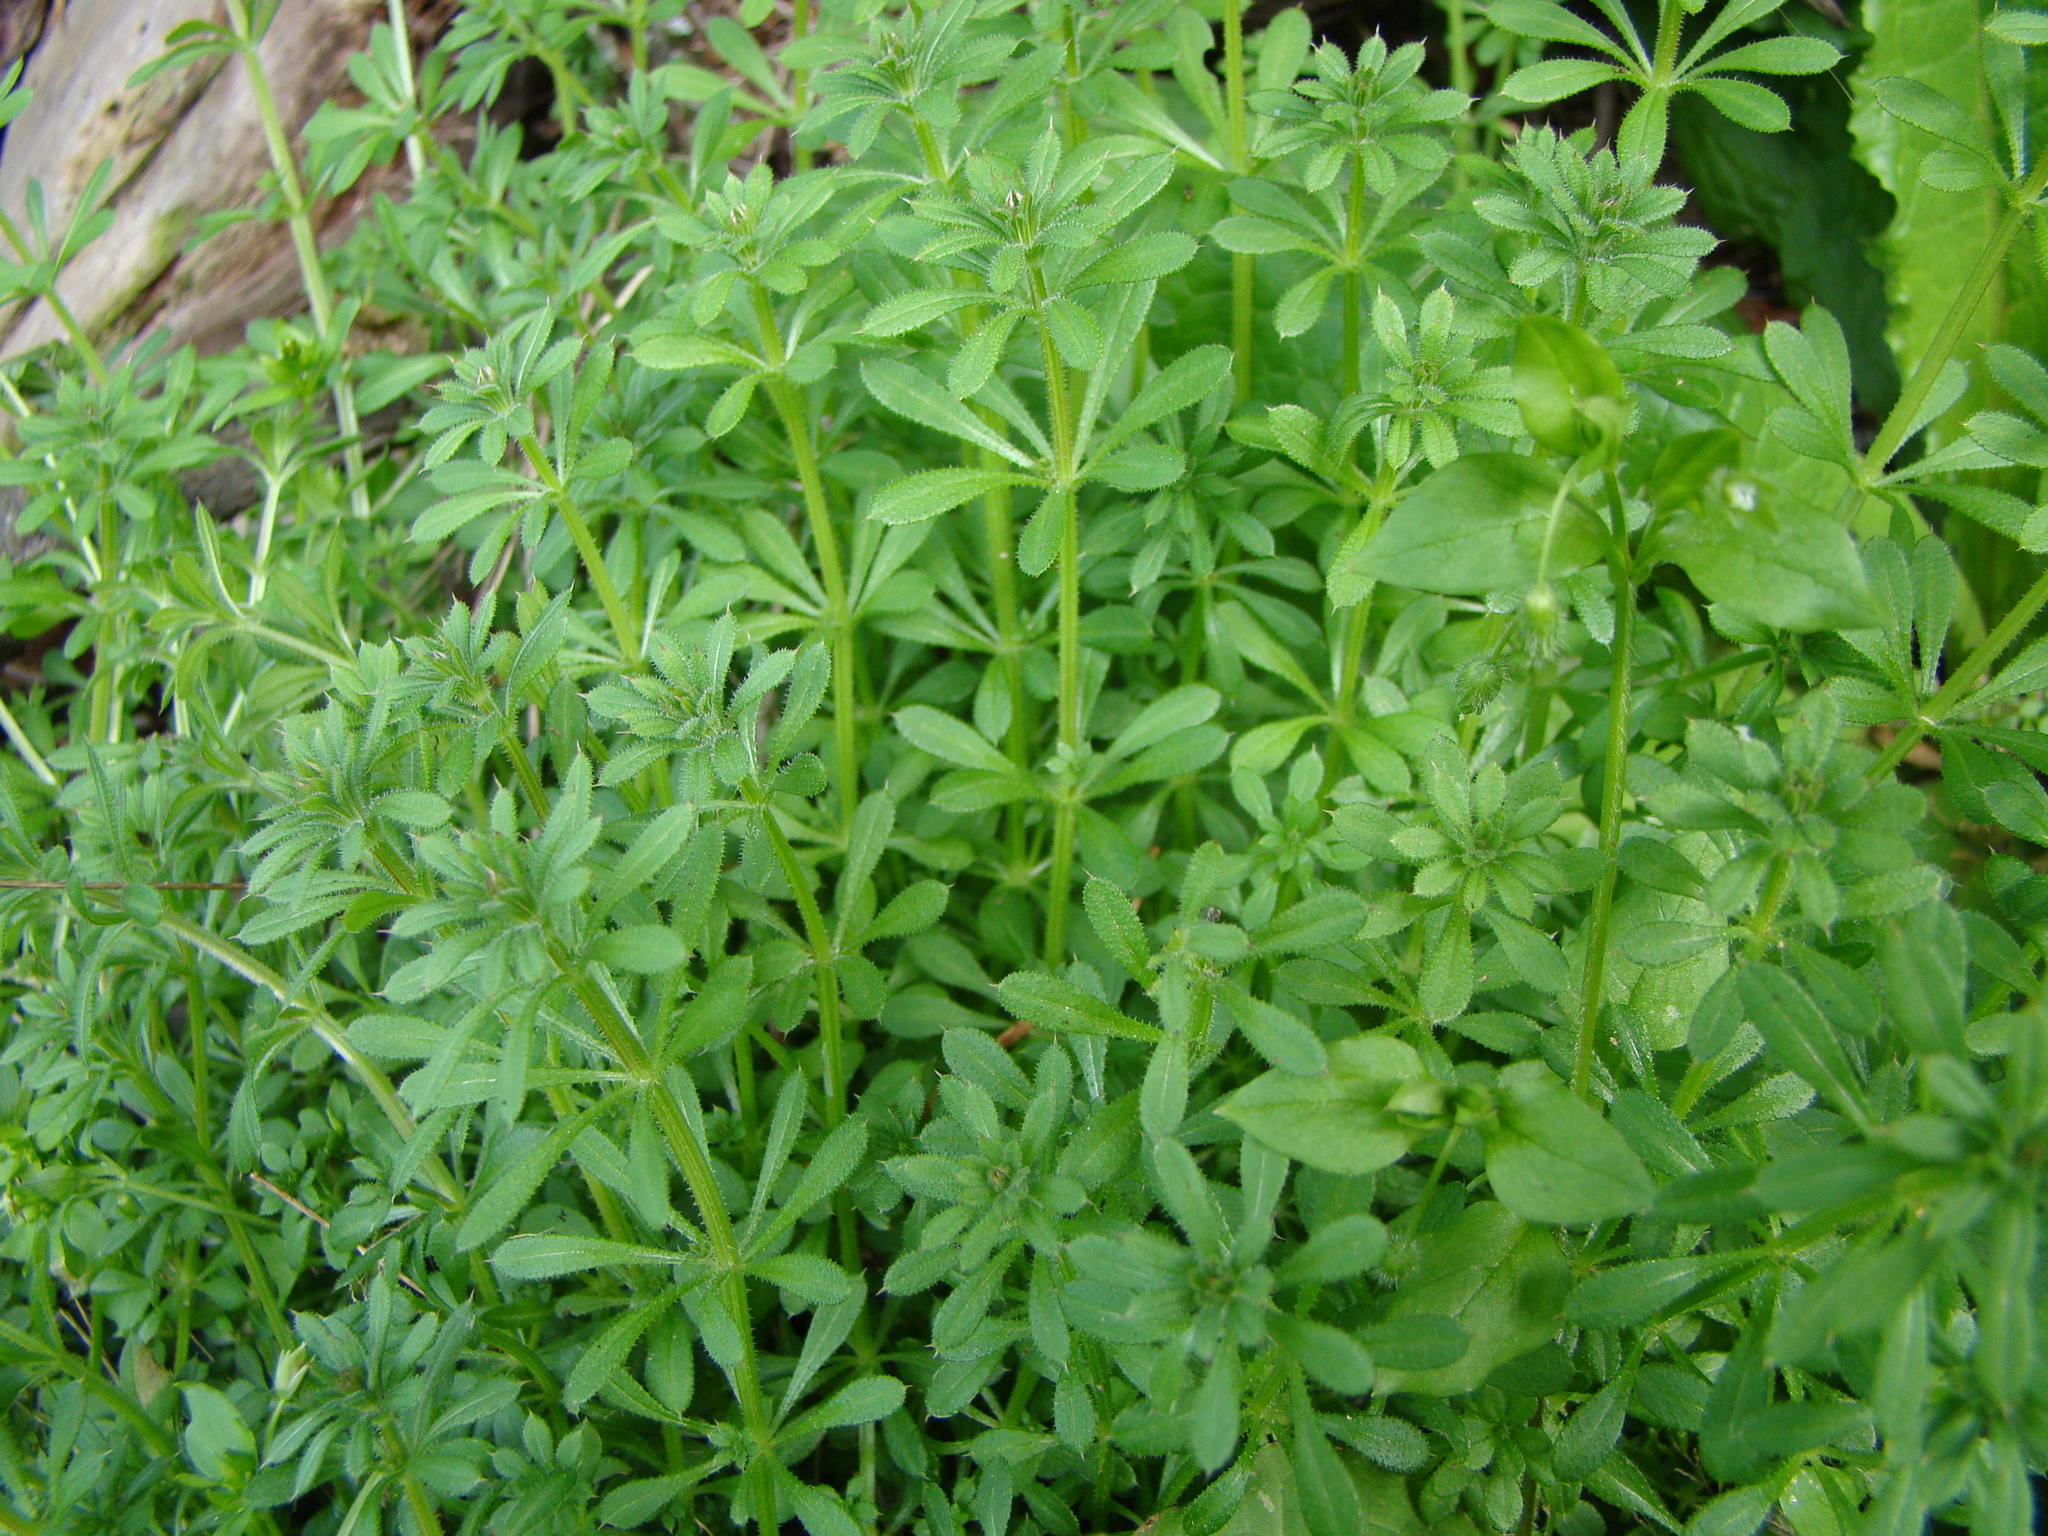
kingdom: Plantae
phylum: Tracheophyta
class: Magnoliopsida
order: Gentianales
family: Rubiaceae
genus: Galium
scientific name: Galium aparine
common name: Cleavers
